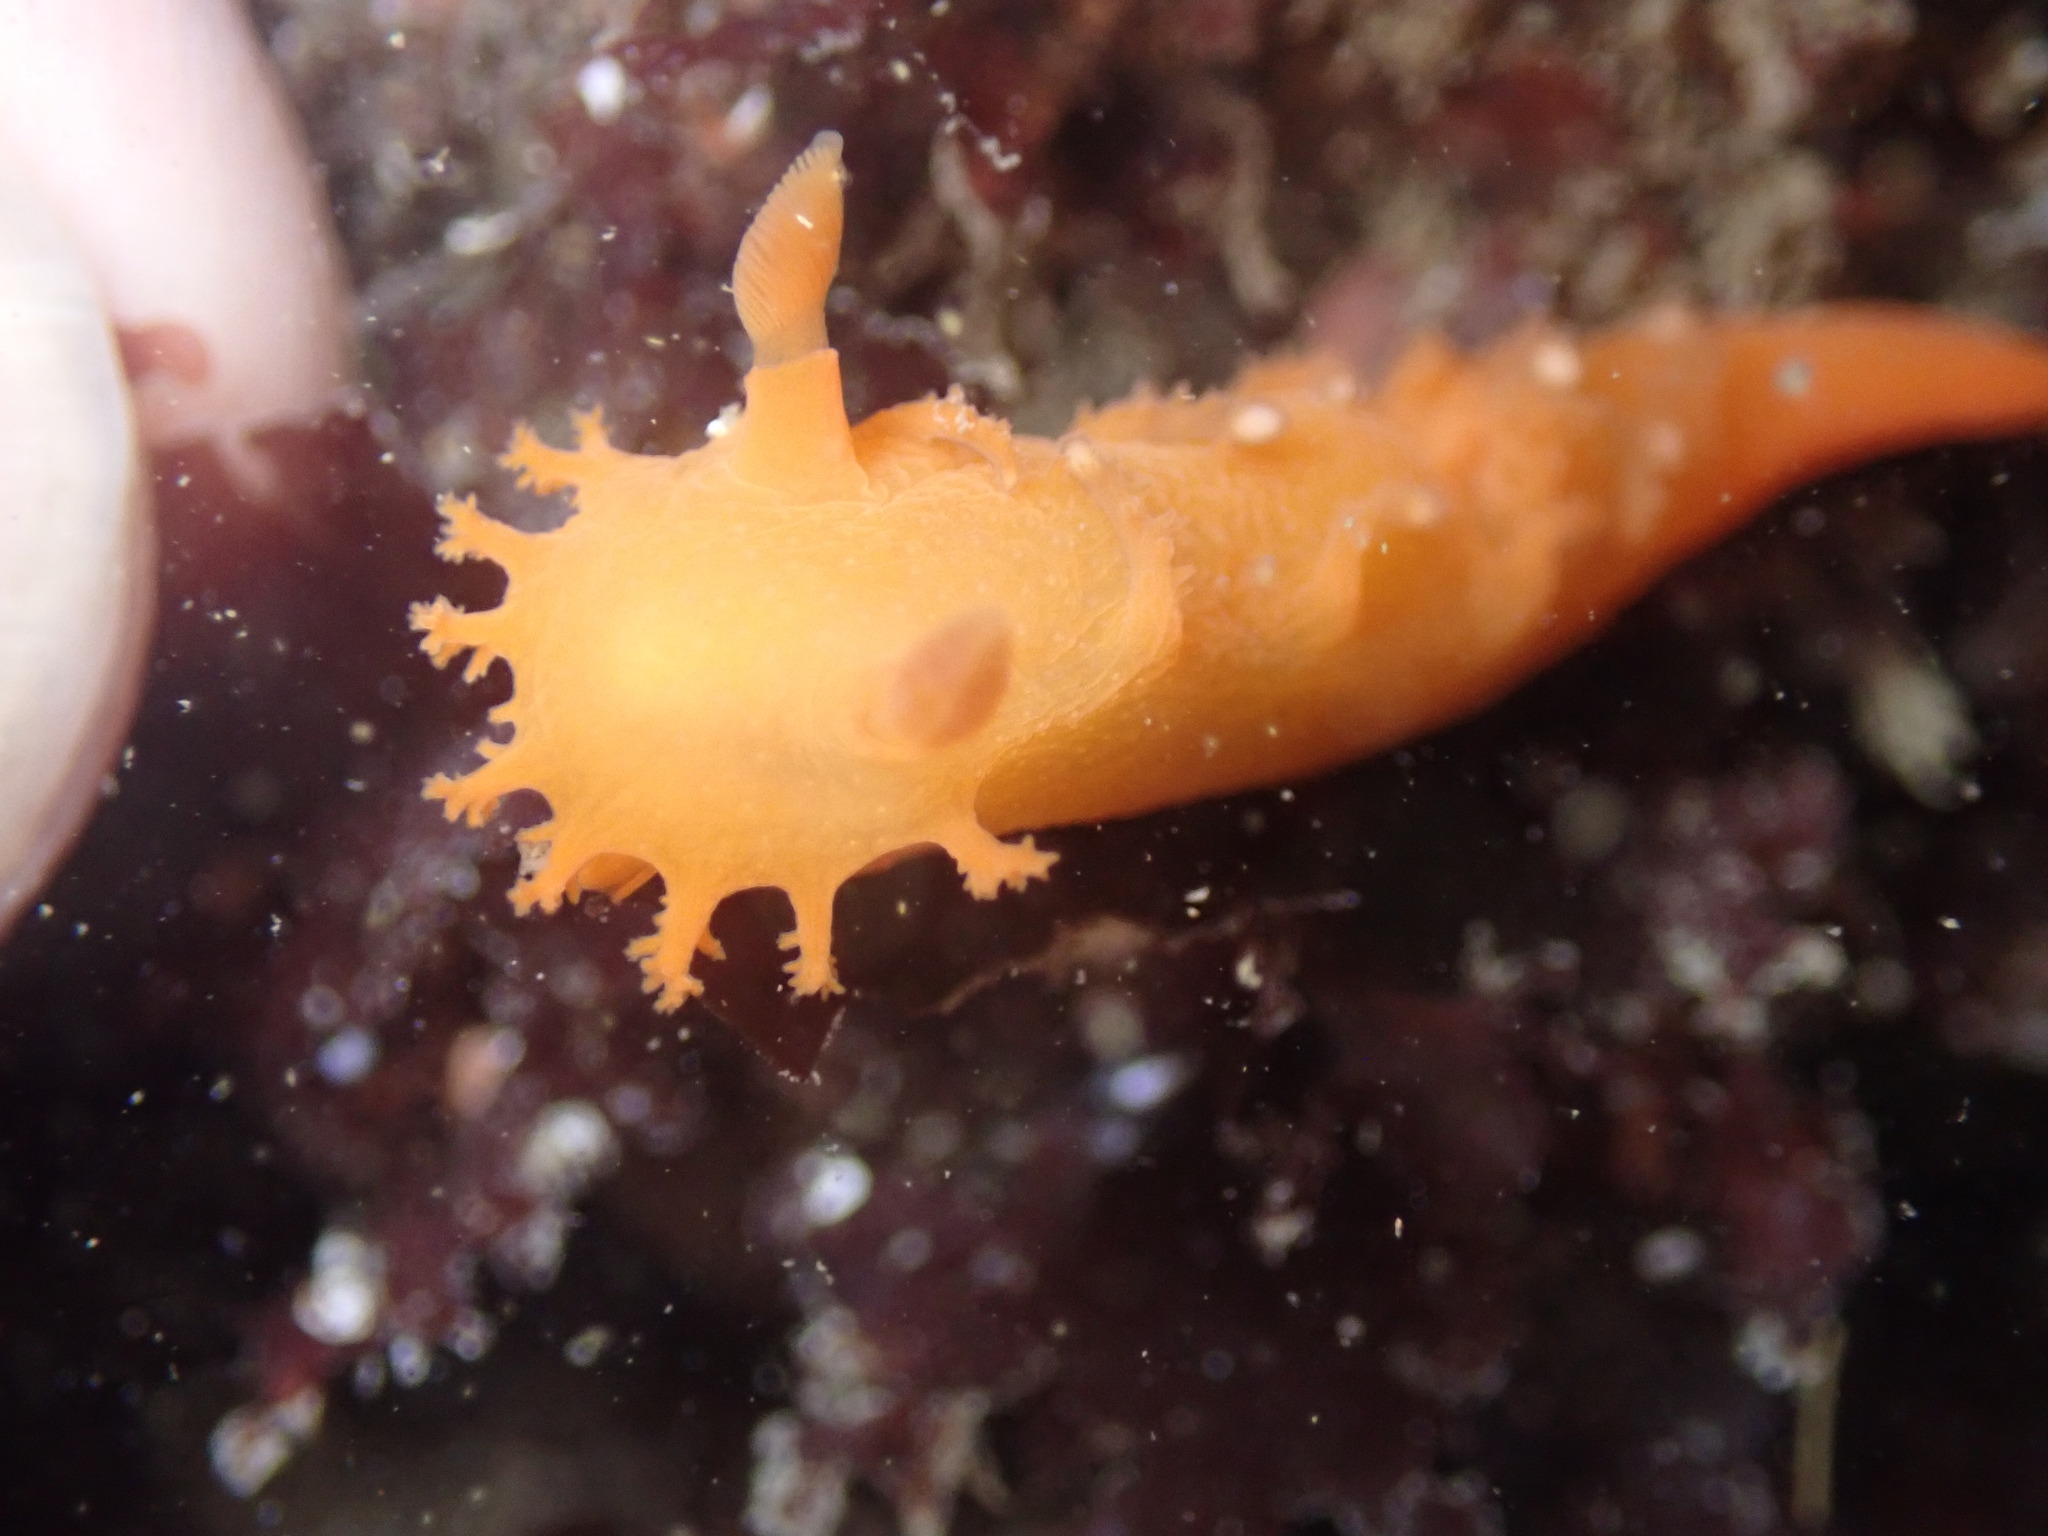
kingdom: Animalia
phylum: Mollusca
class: Gastropoda
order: Nudibranchia
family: Polyceridae
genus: Triopha
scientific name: Triopha maculata
